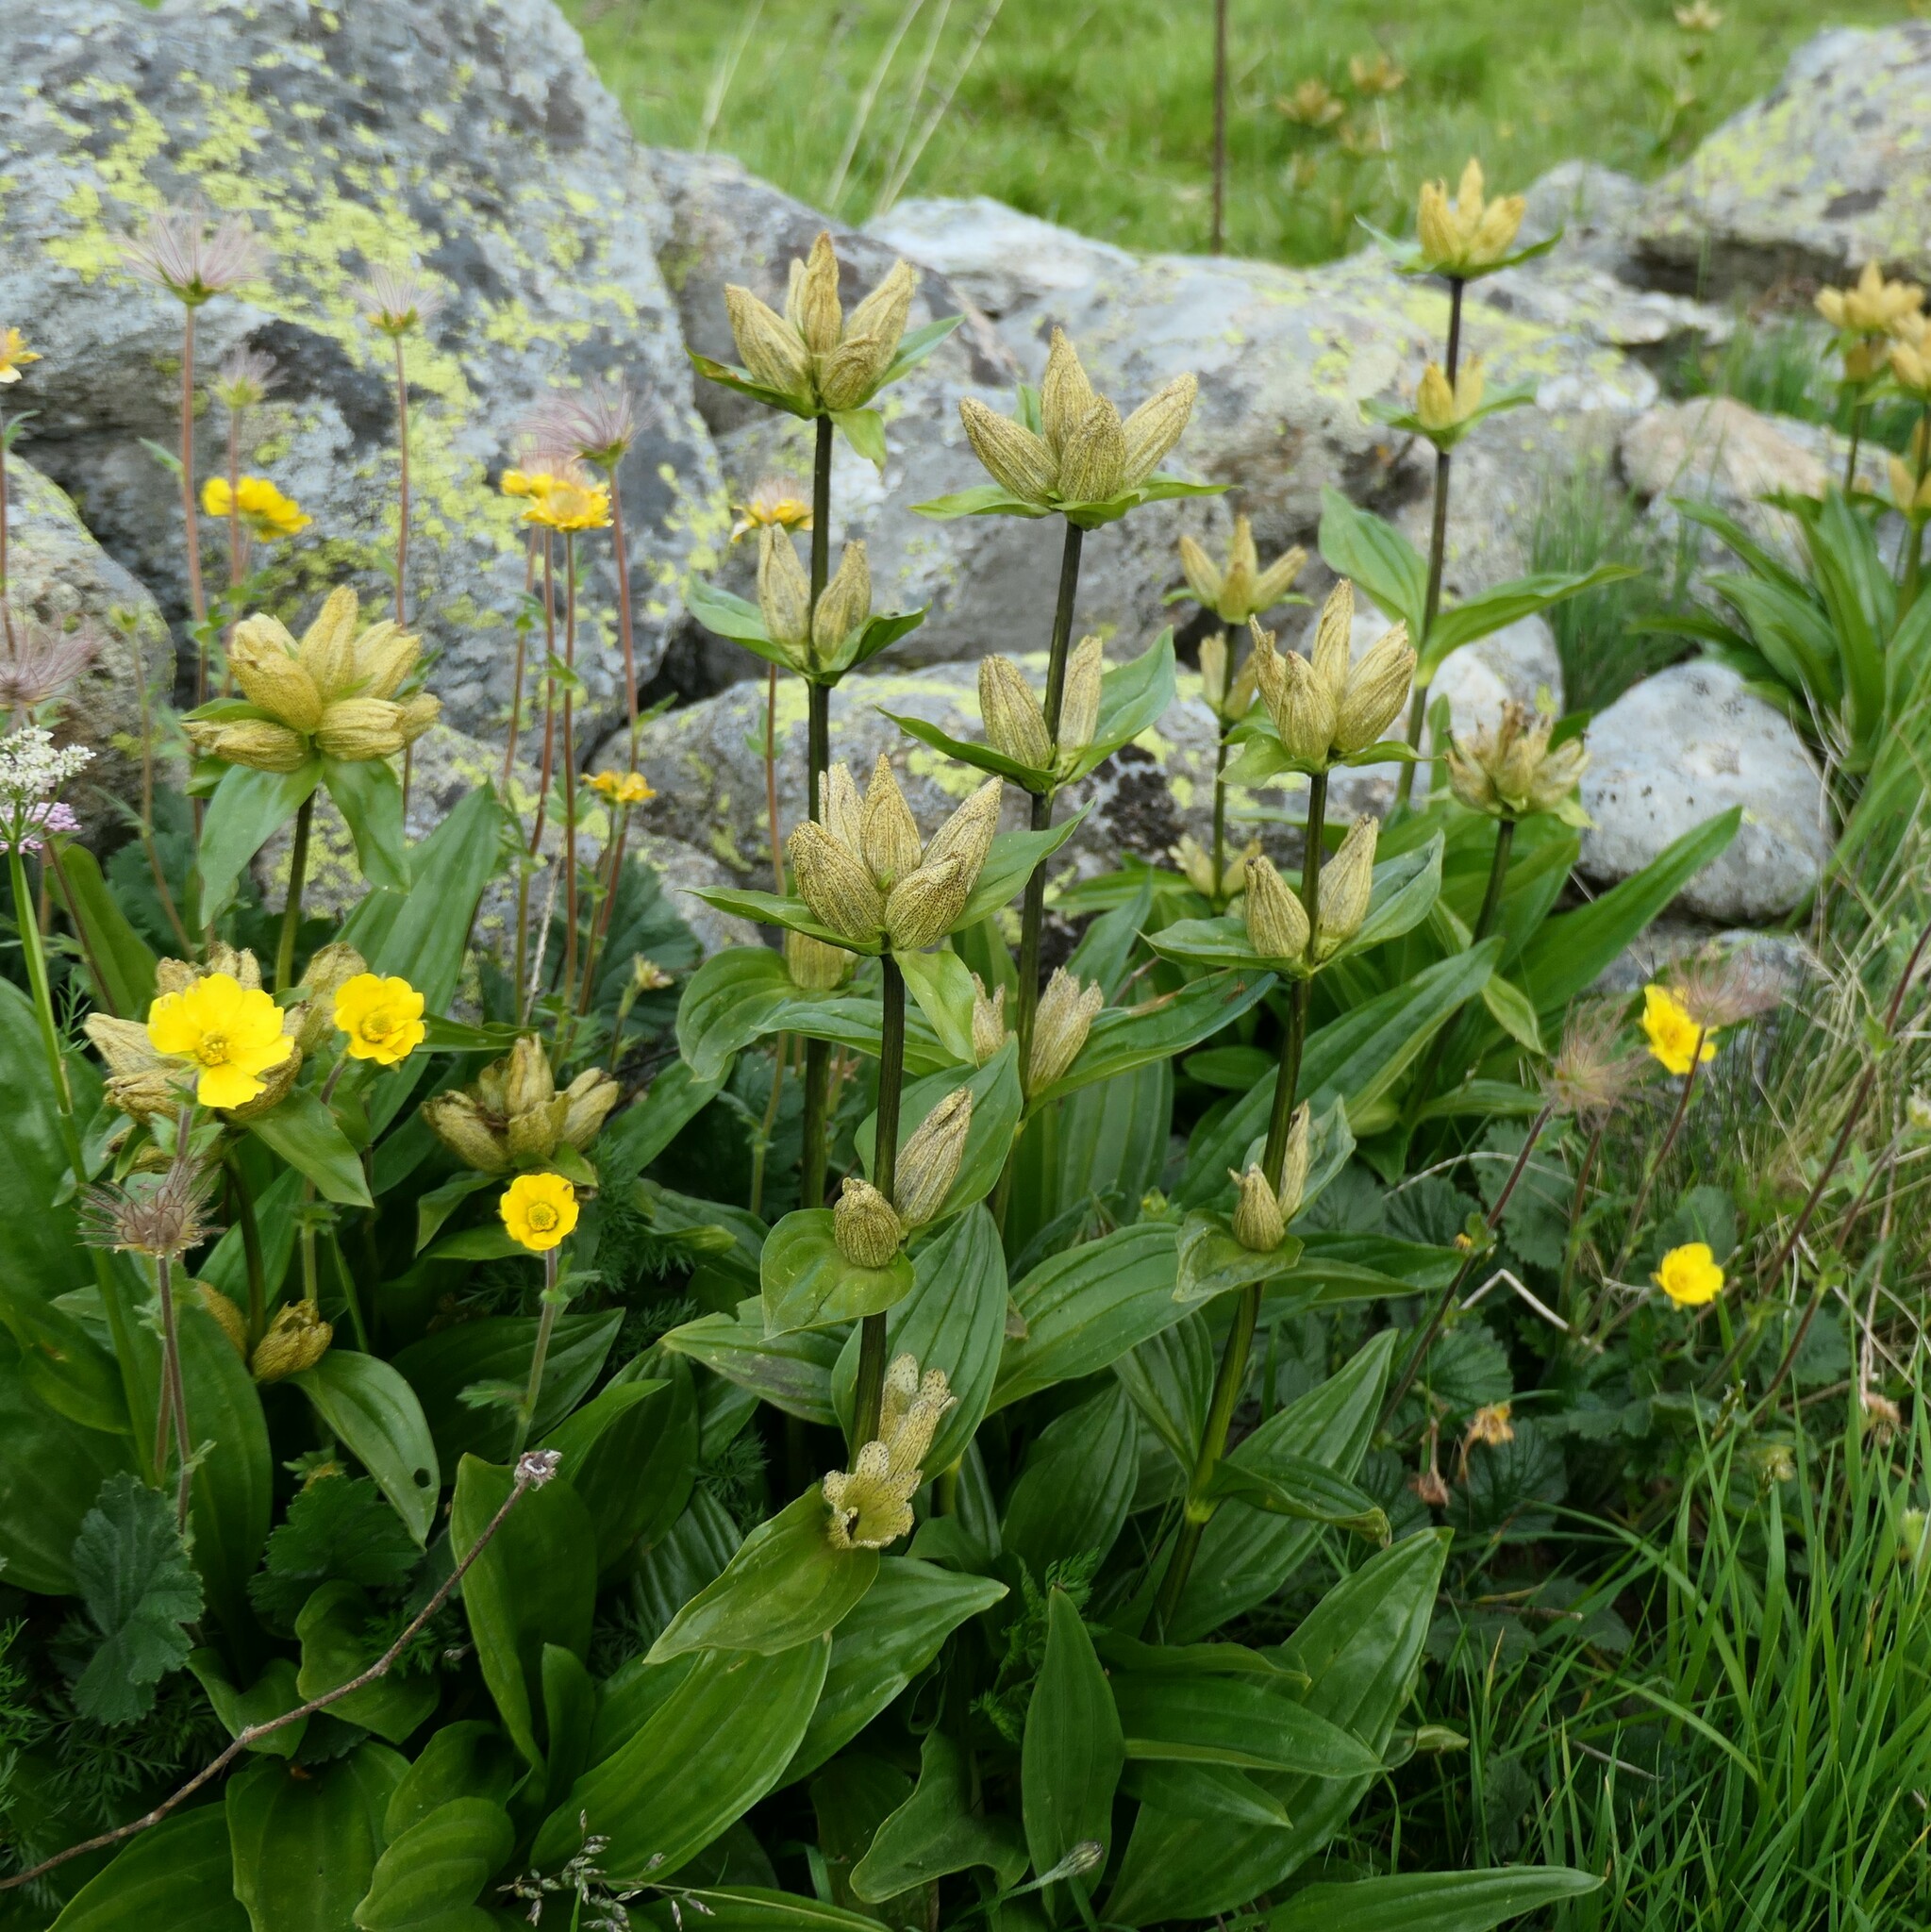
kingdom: Plantae
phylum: Tracheophyta
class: Magnoliopsida
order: Gentianales
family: Gentianaceae
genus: Gentiana
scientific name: Gentiana punctata
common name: Spotted gentian
